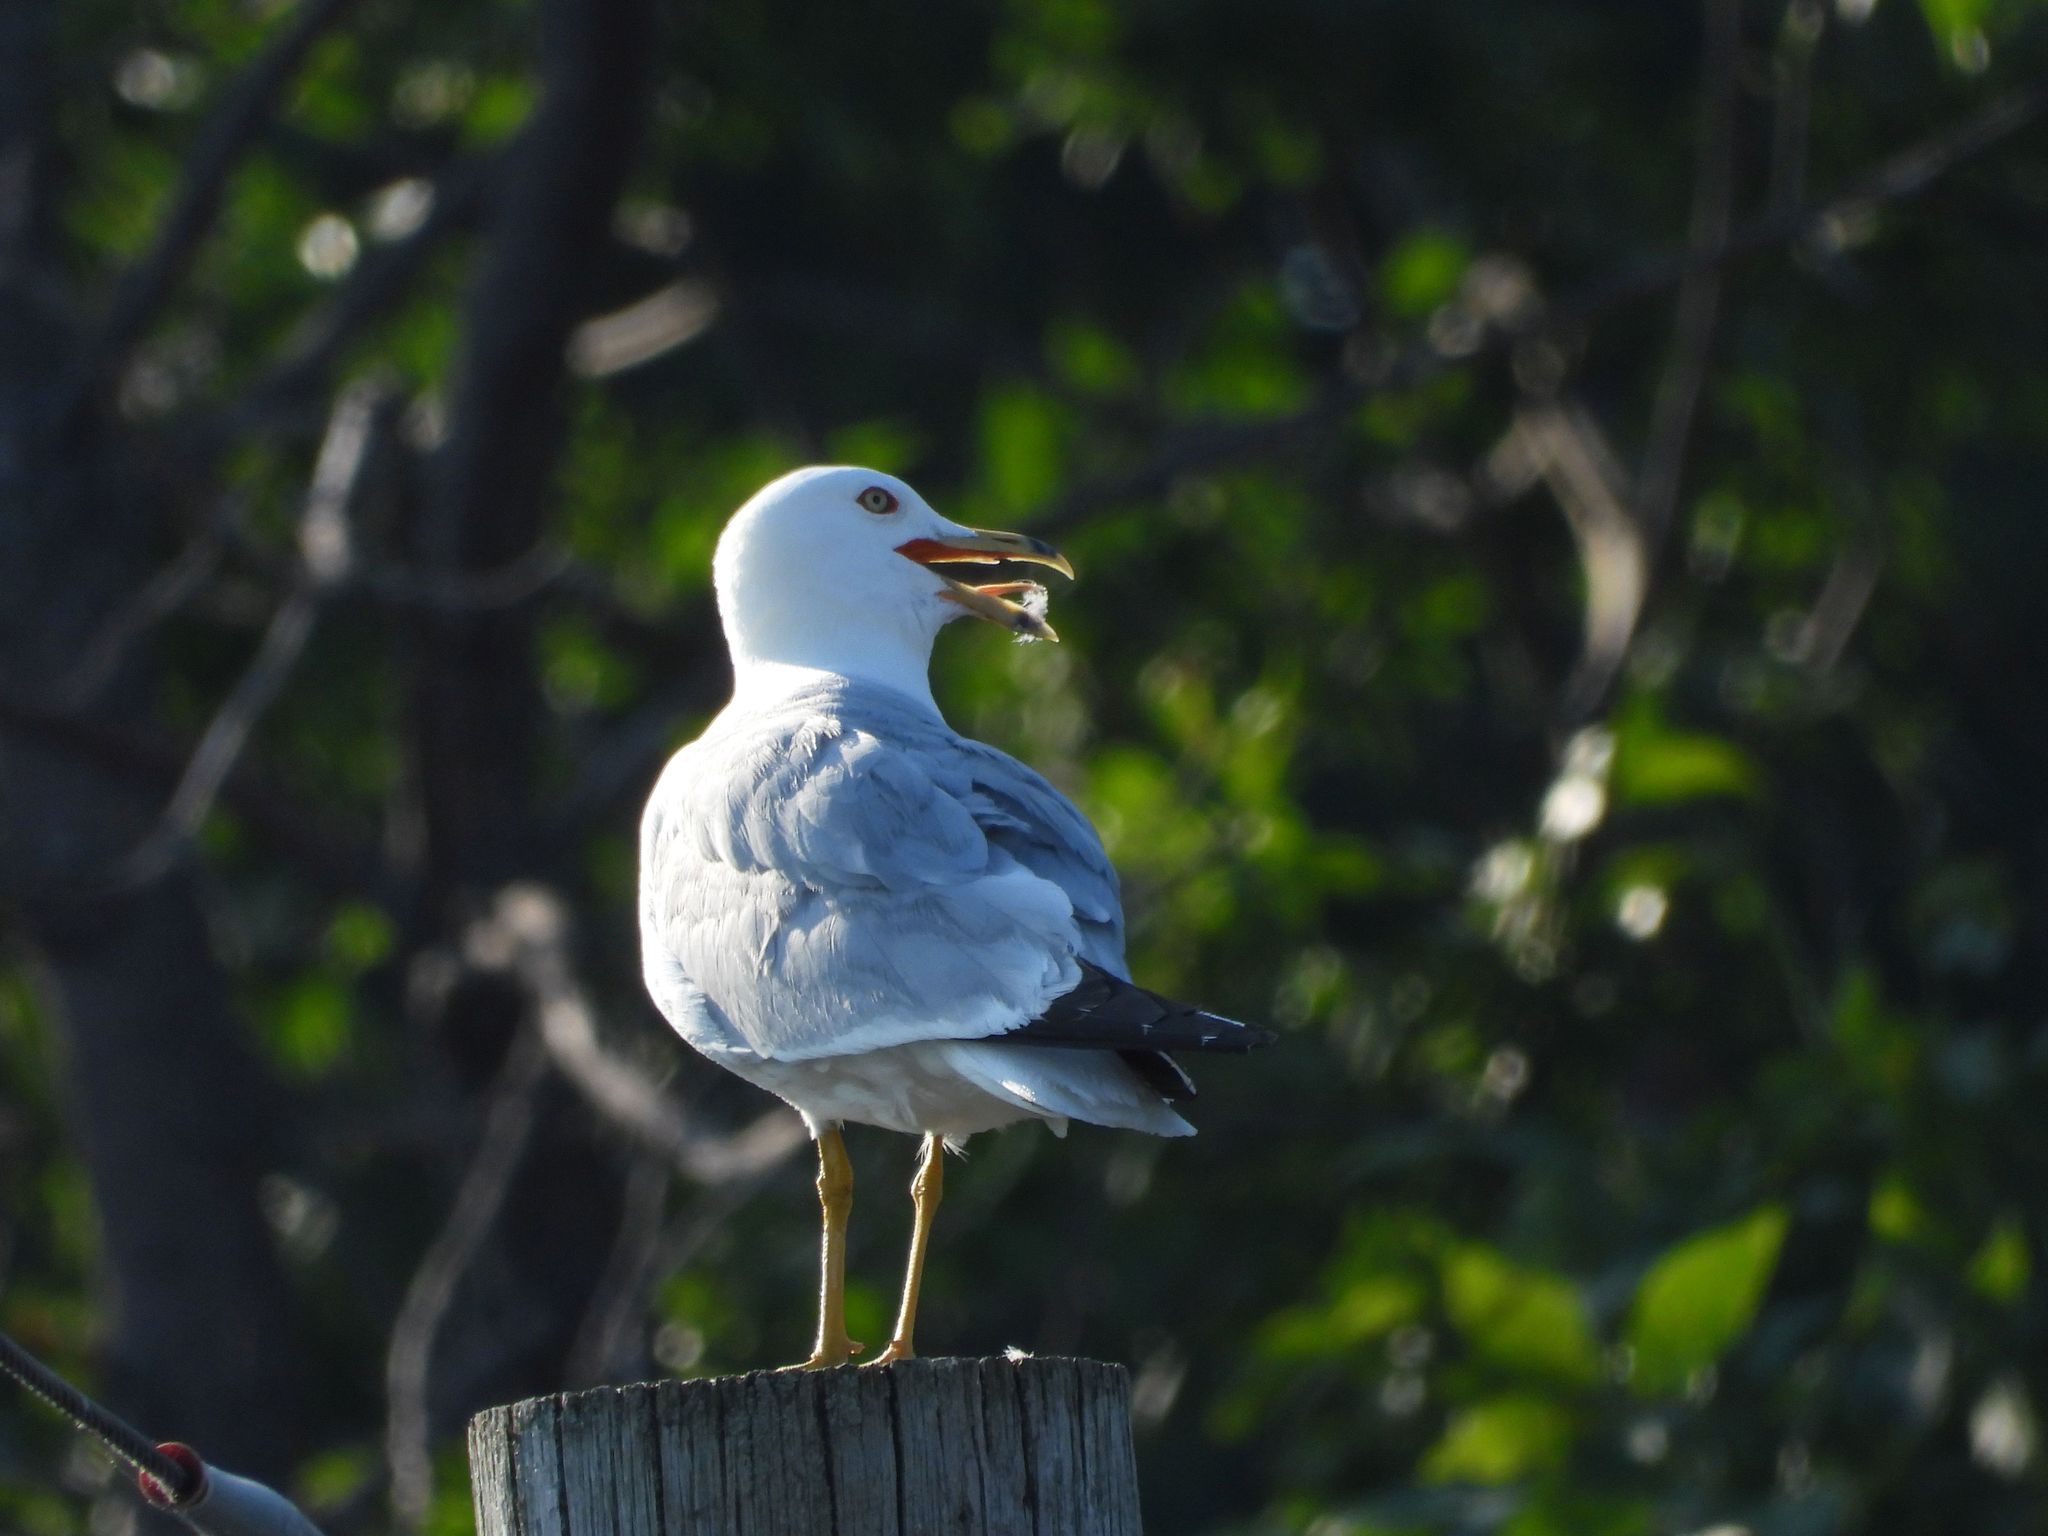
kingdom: Animalia
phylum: Chordata
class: Aves
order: Charadriiformes
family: Laridae
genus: Larus
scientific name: Larus delawarensis
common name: Ring-billed gull
